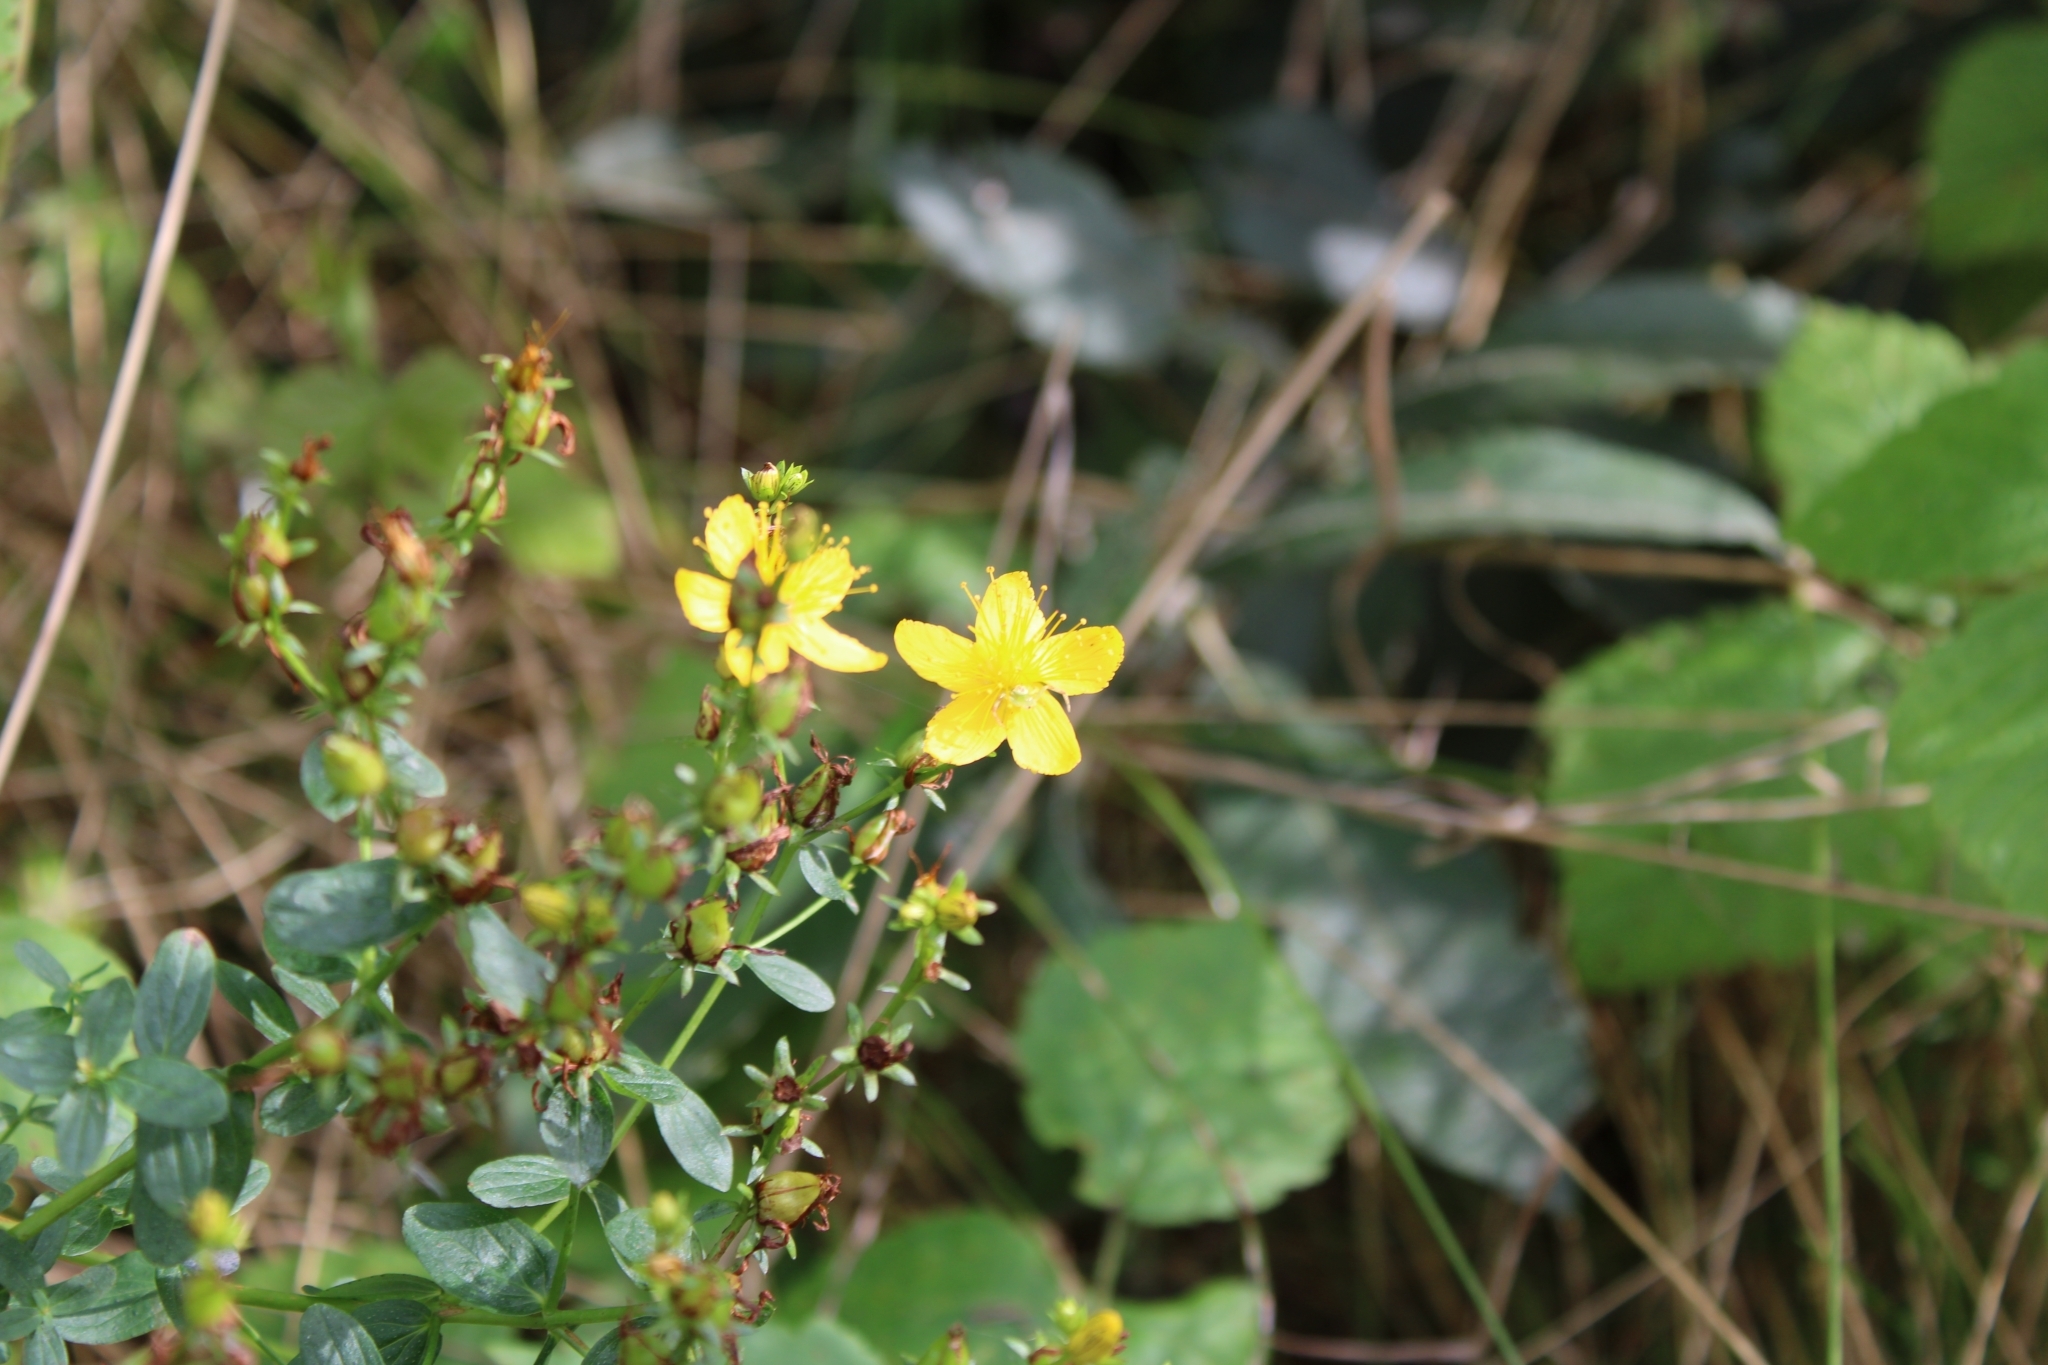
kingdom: Plantae
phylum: Tracheophyta
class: Magnoliopsida
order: Malpighiales
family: Hypericaceae
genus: Hypericum
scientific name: Hypericum perforatum
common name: Common st. johnswort
